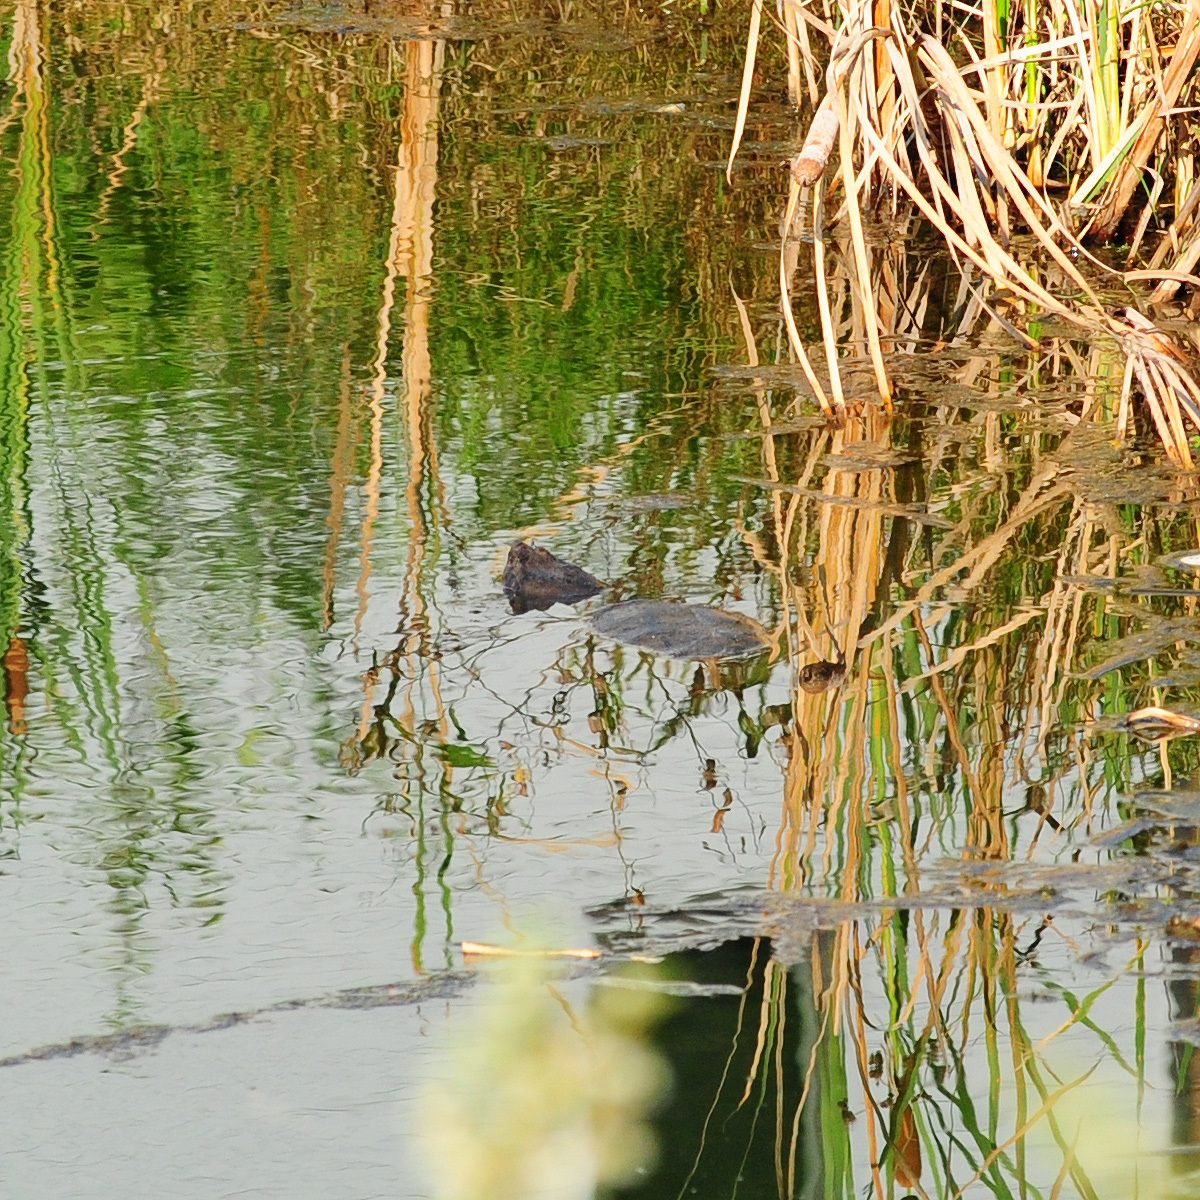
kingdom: Animalia
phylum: Chordata
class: Testudines
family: Chelydridae
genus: Chelydra
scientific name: Chelydra serpentina
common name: Common snapping turtle
